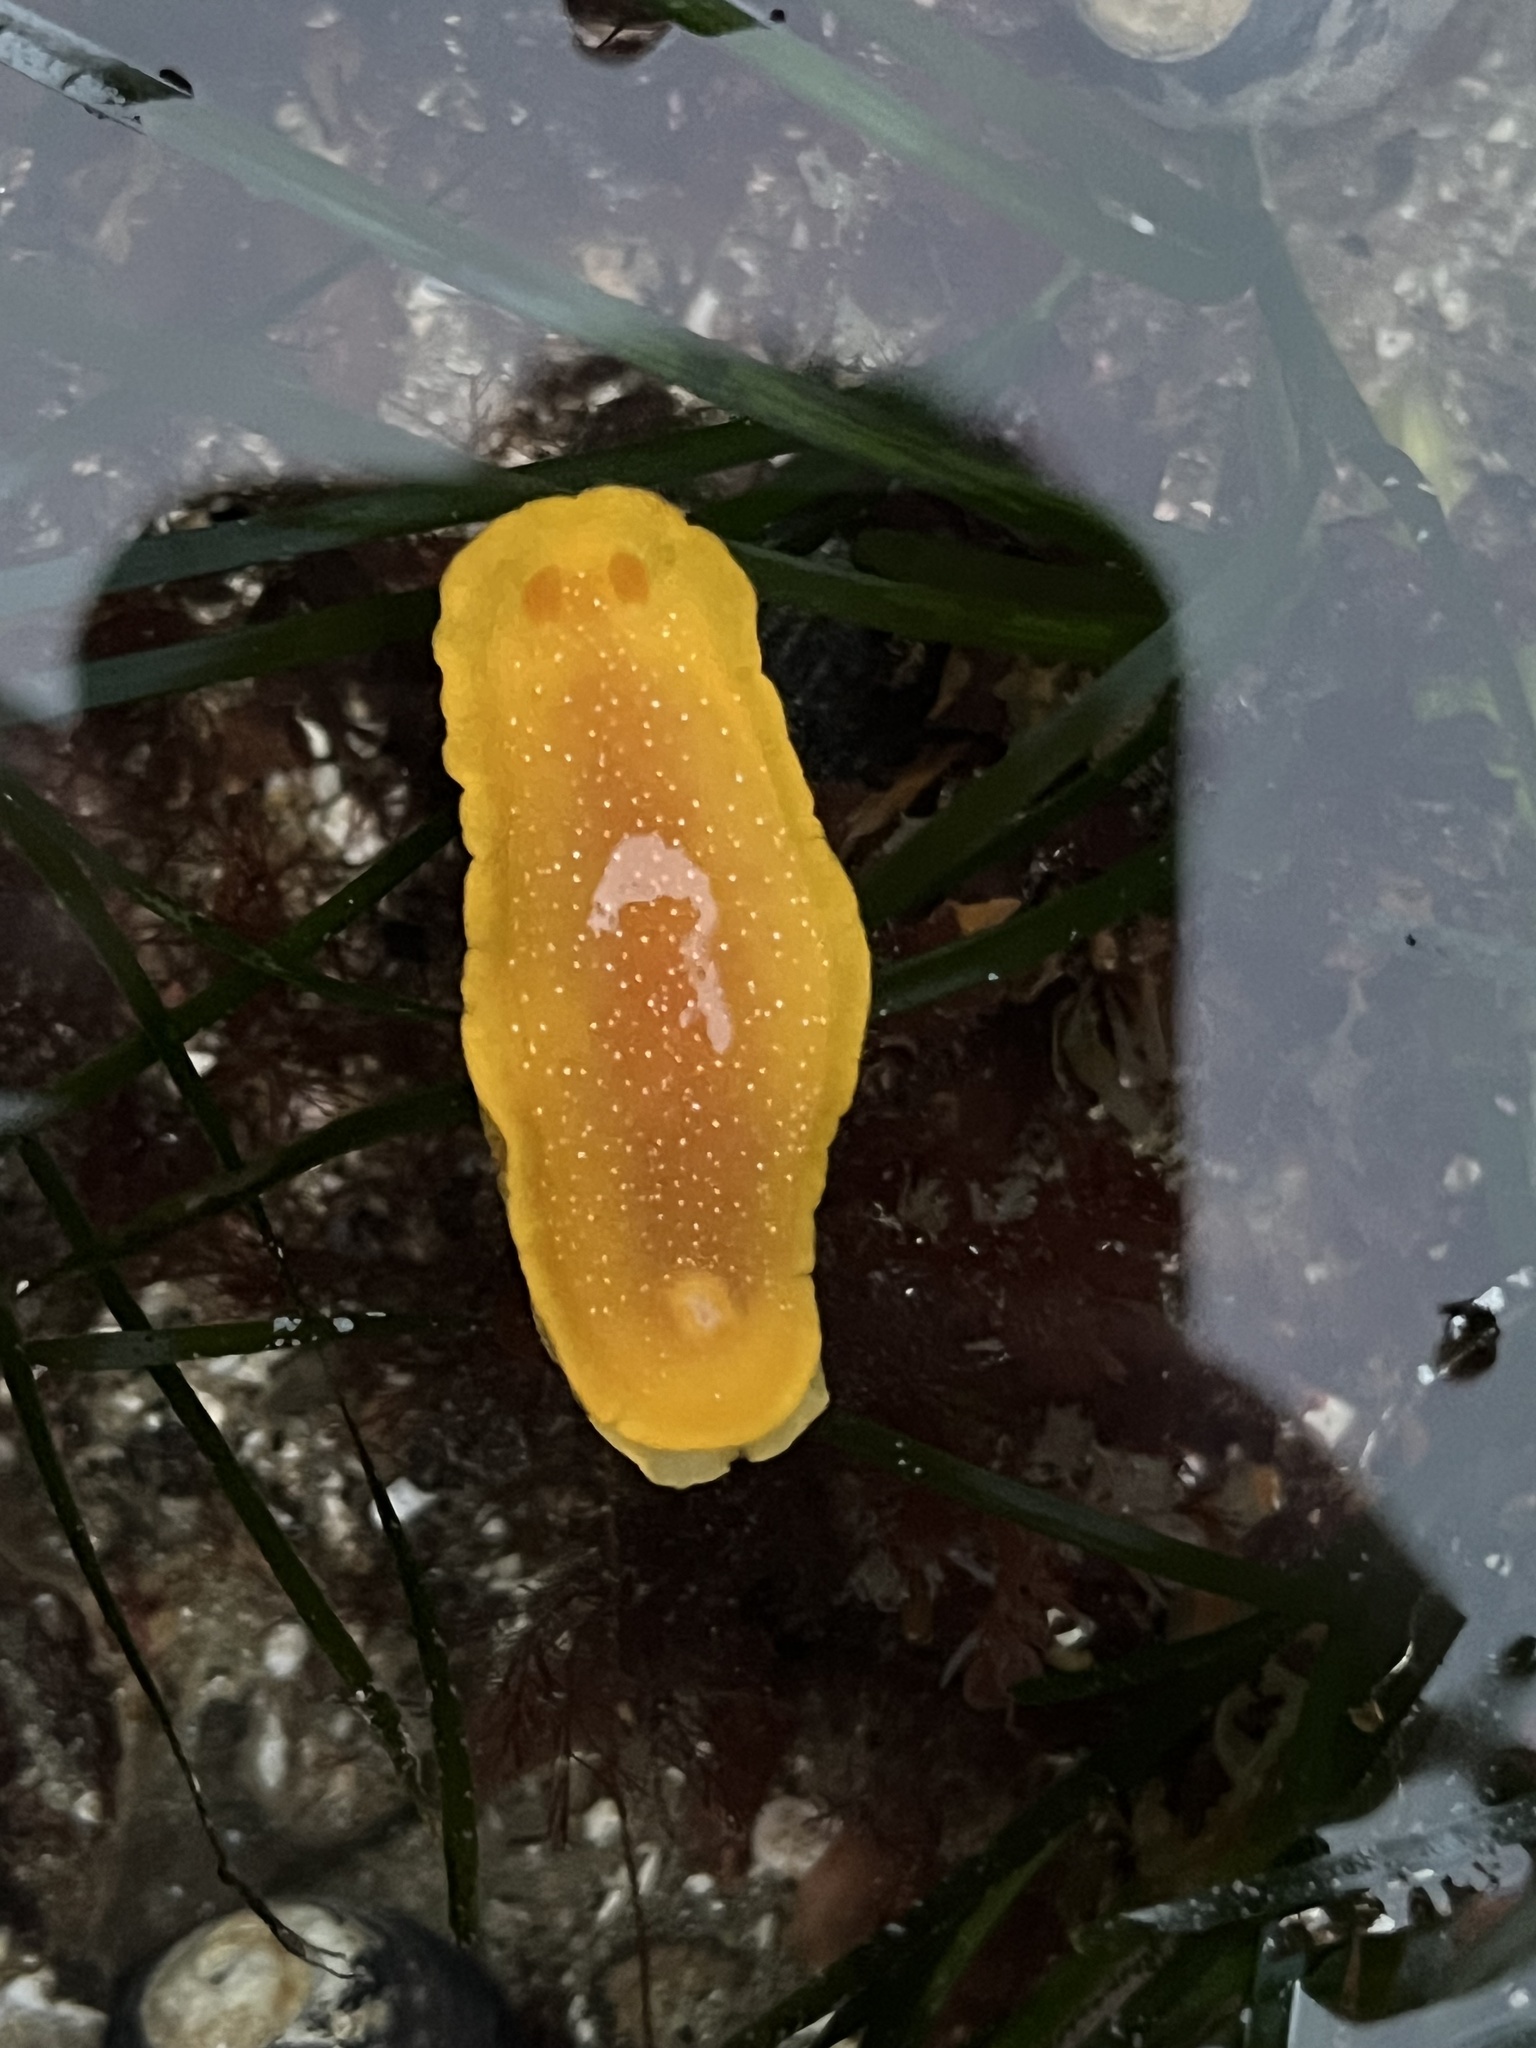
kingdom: Animalia
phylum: Mollusca
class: Gastropoda
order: Nudibranchia
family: Dendrodorididae
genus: Doriopsilla
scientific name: Doriopsilla albopunctata
